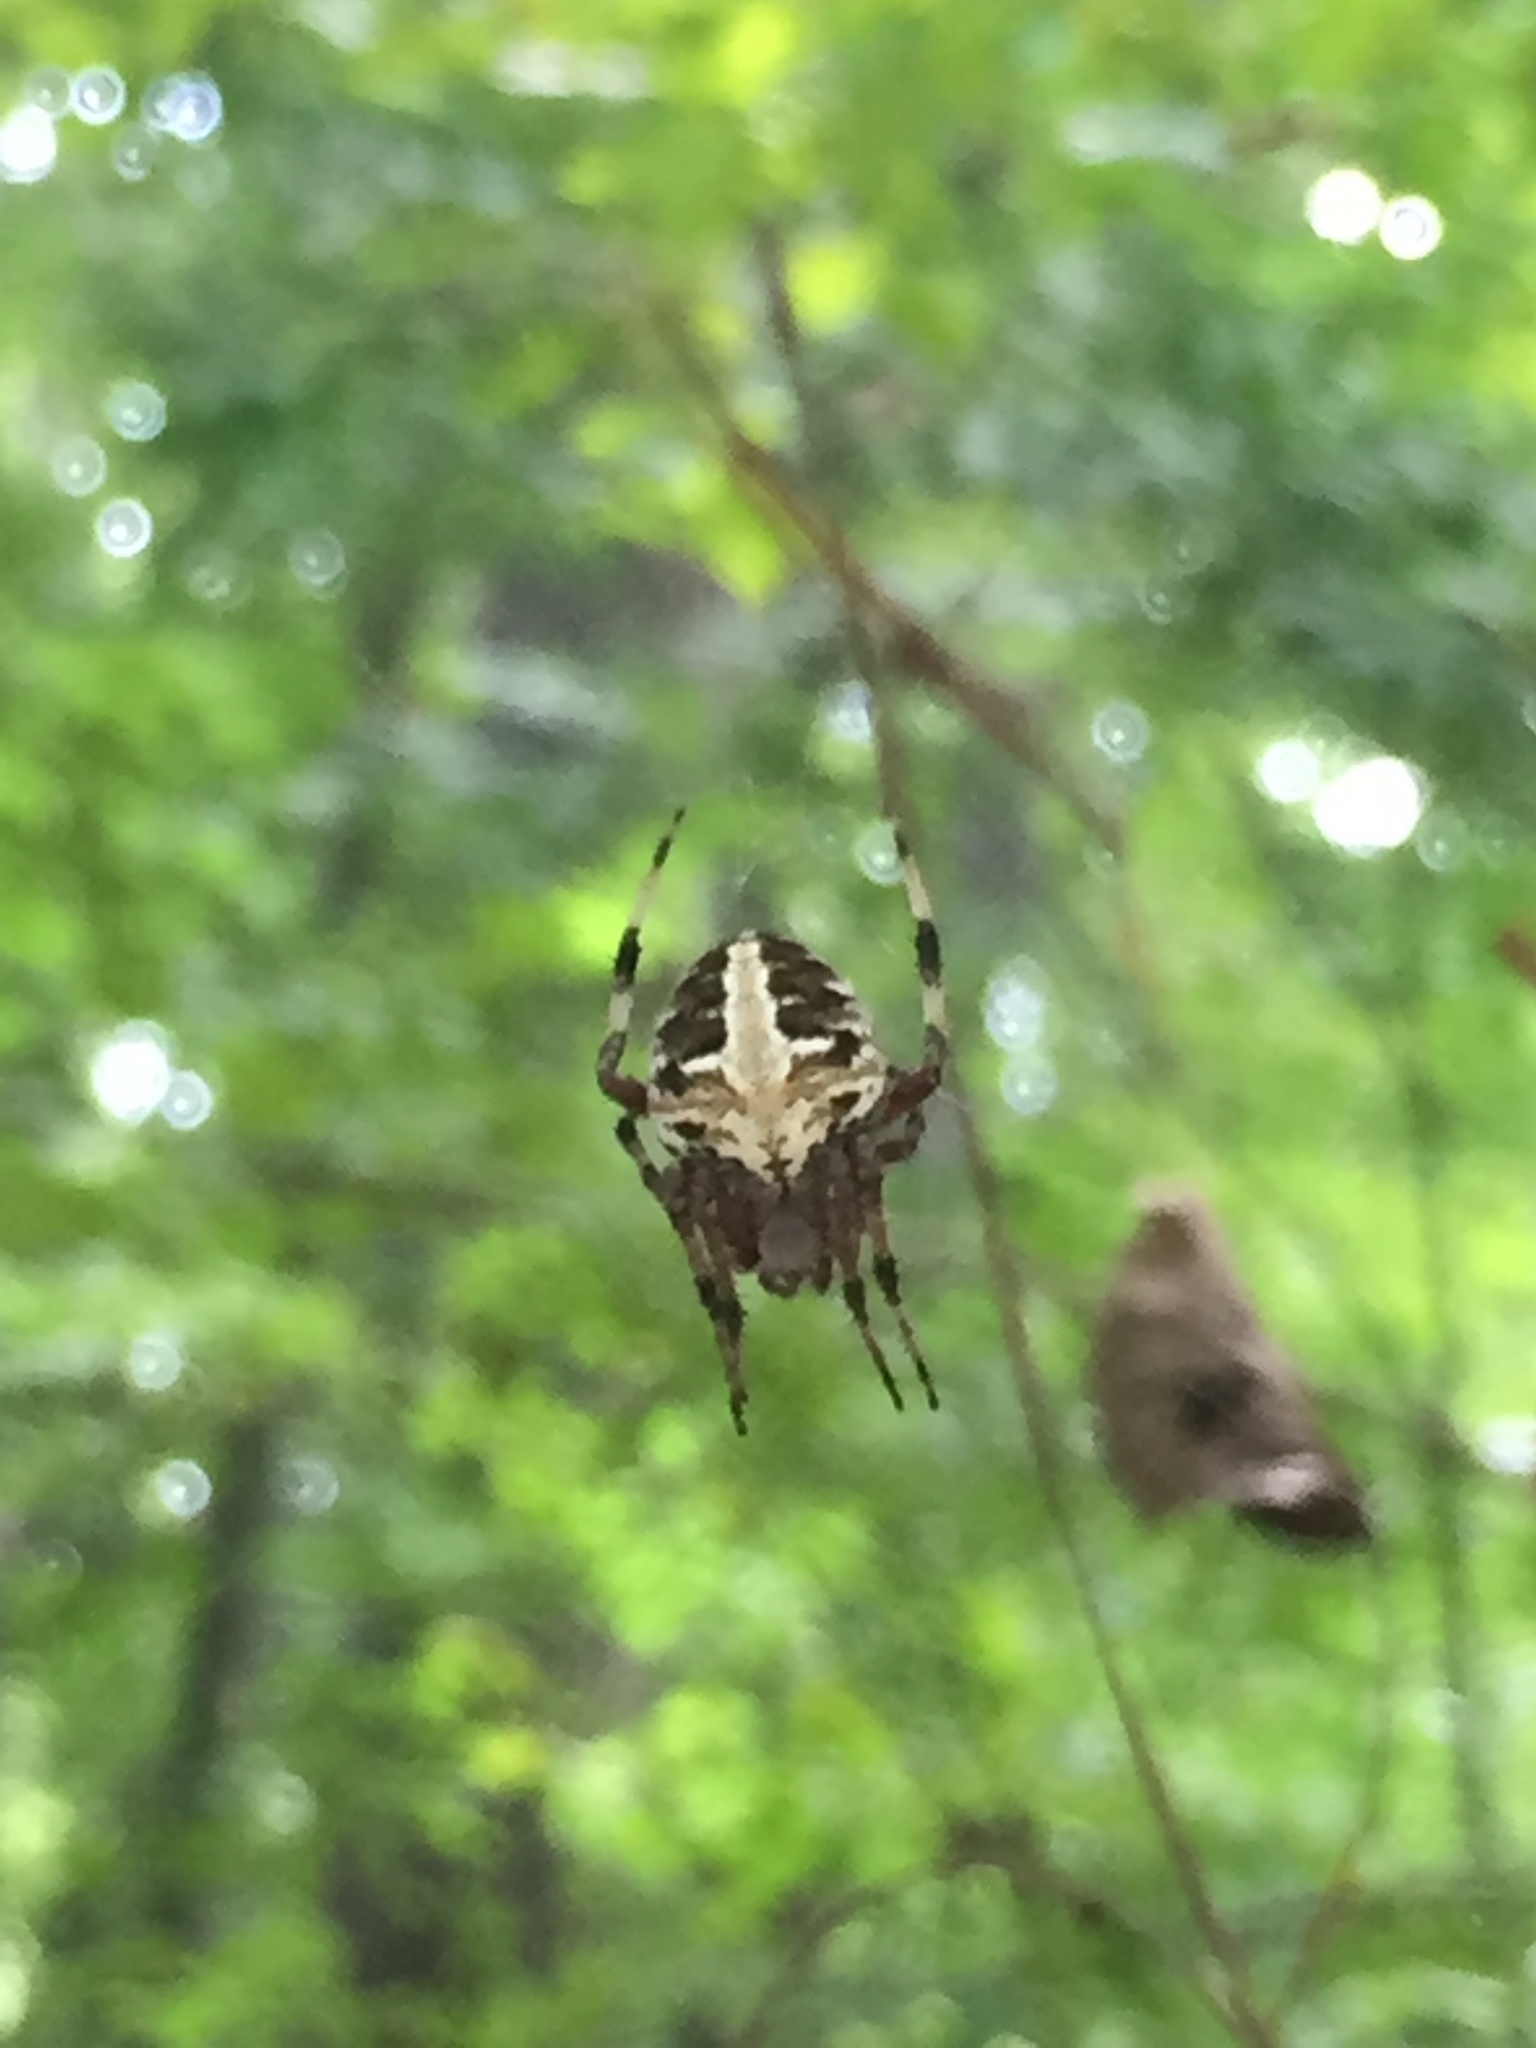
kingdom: Animalia
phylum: Arthropoda
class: Arachnida
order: Araneae
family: Araneidae
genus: Neoscona
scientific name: Neoscona domiciliorum
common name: Red-femured spotted orbweaver
